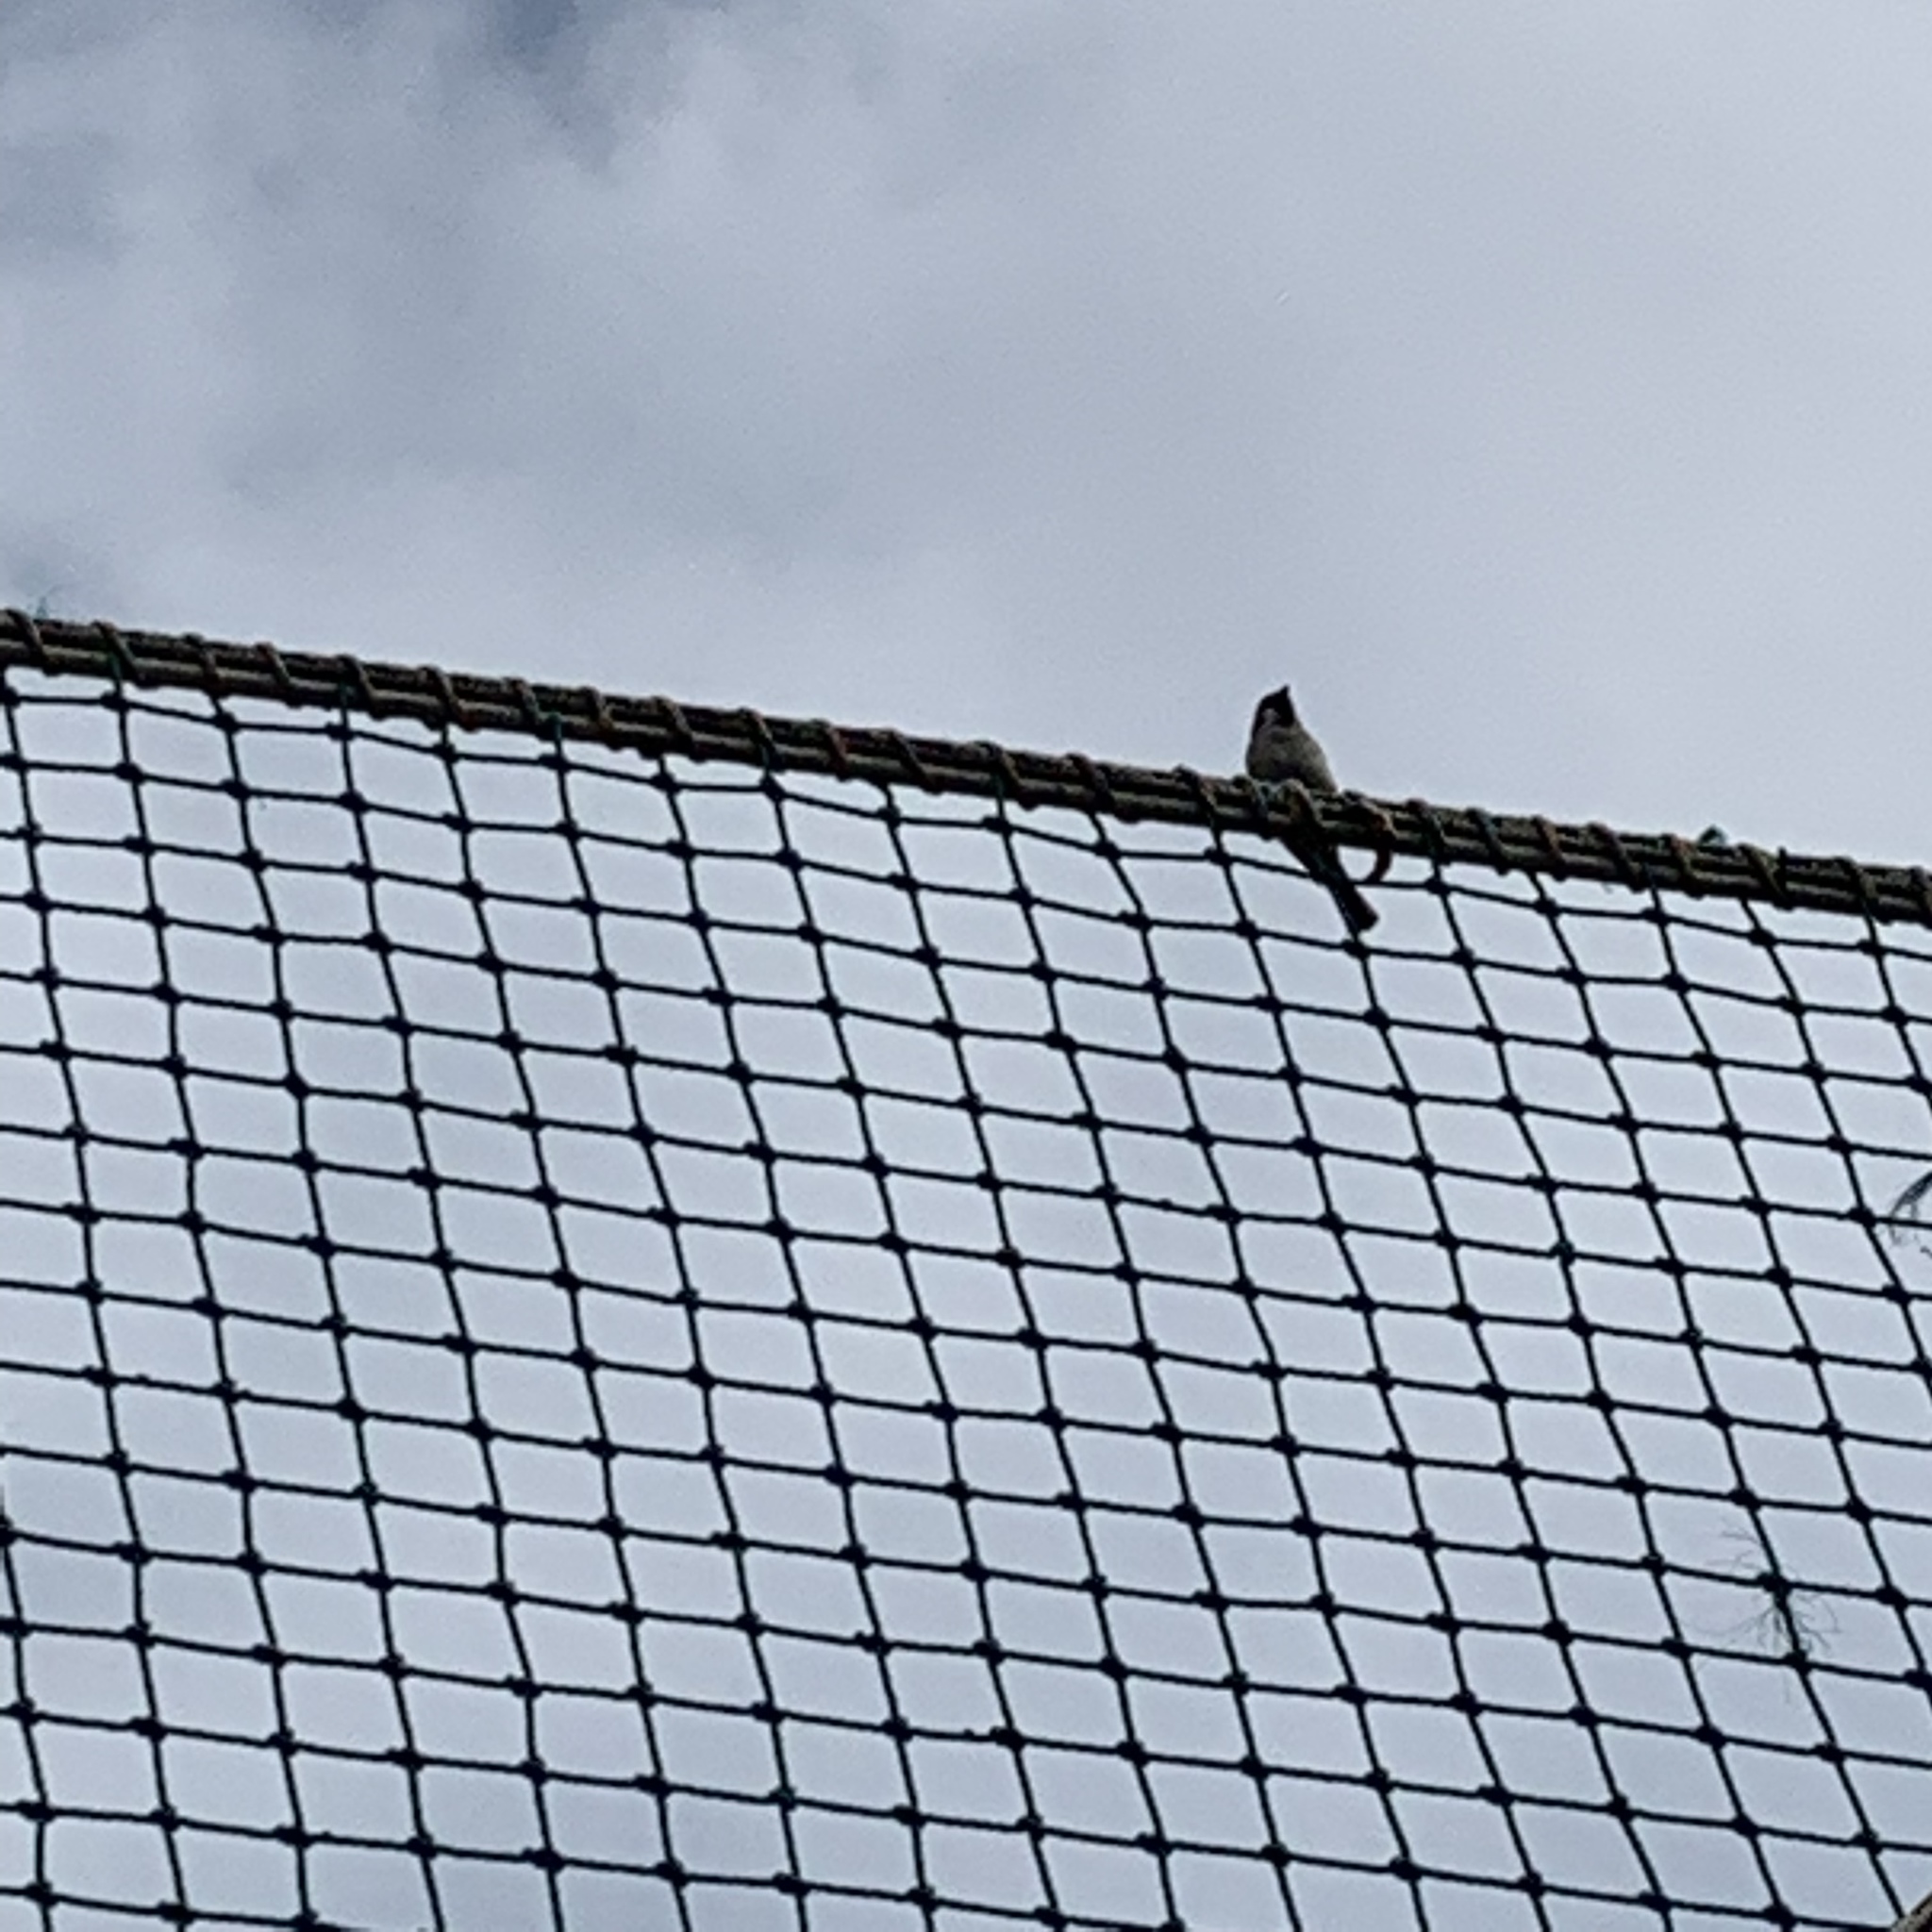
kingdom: Animalia
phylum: Chordata
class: Aves
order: Passeriformes
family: Passeridae
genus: Passer
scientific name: Passer montanus
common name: Eurasian tree sparrow
